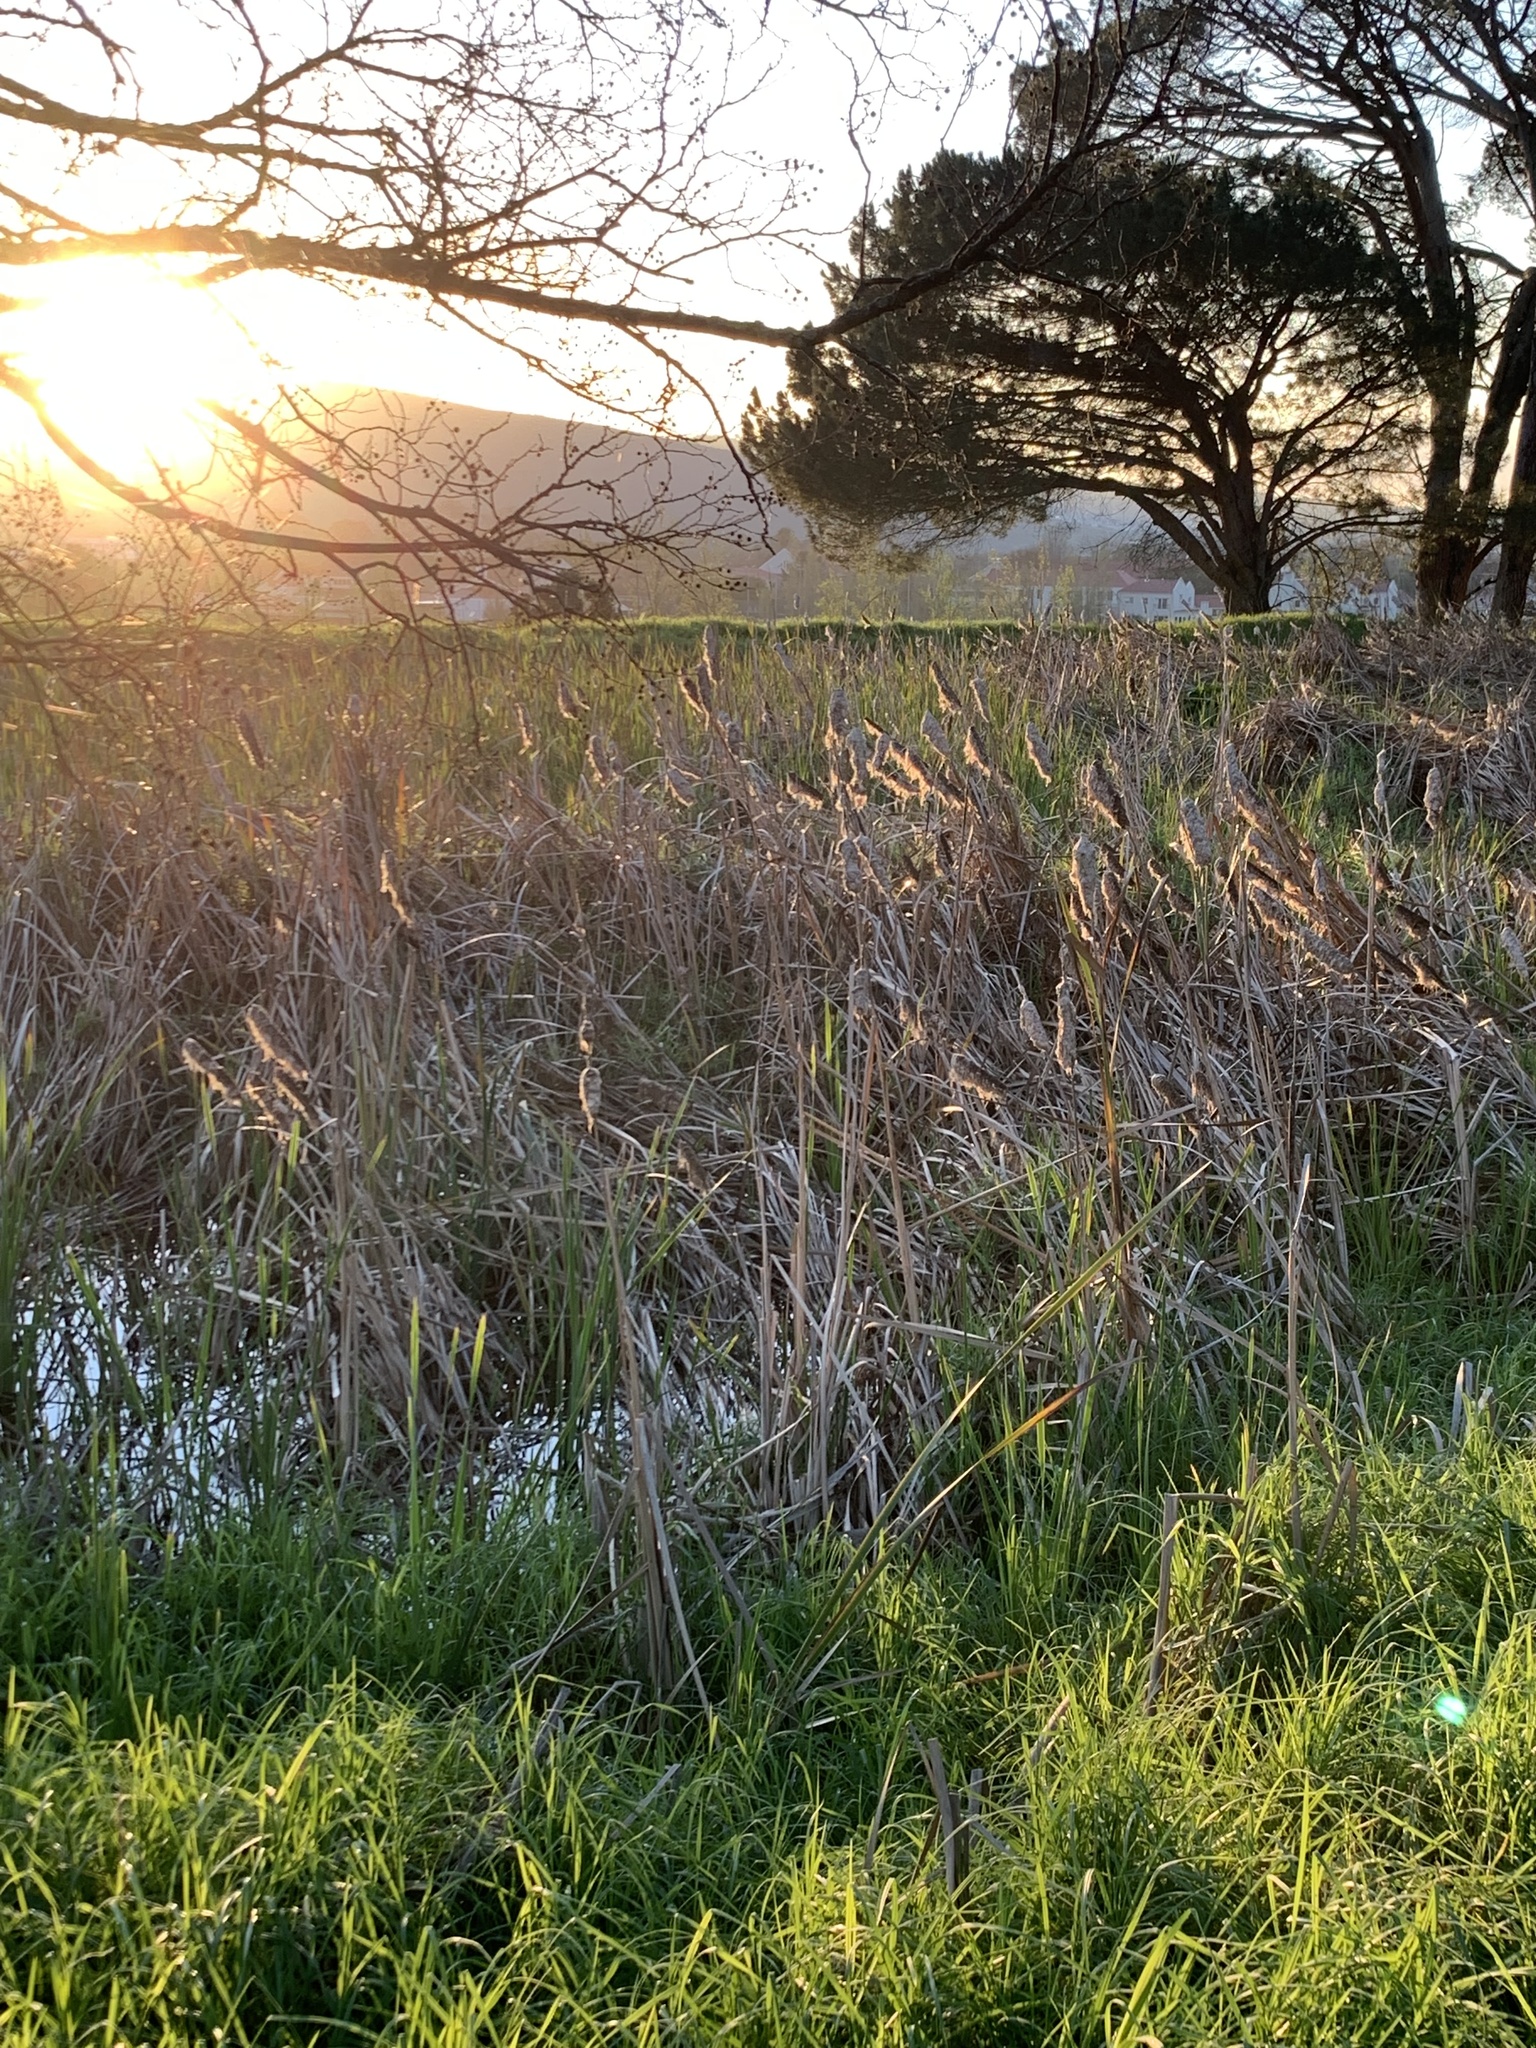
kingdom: Plantae
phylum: Tracheophyta
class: Liliopsida
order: Poales
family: Typhaceae
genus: Typha
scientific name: Typha capensis
